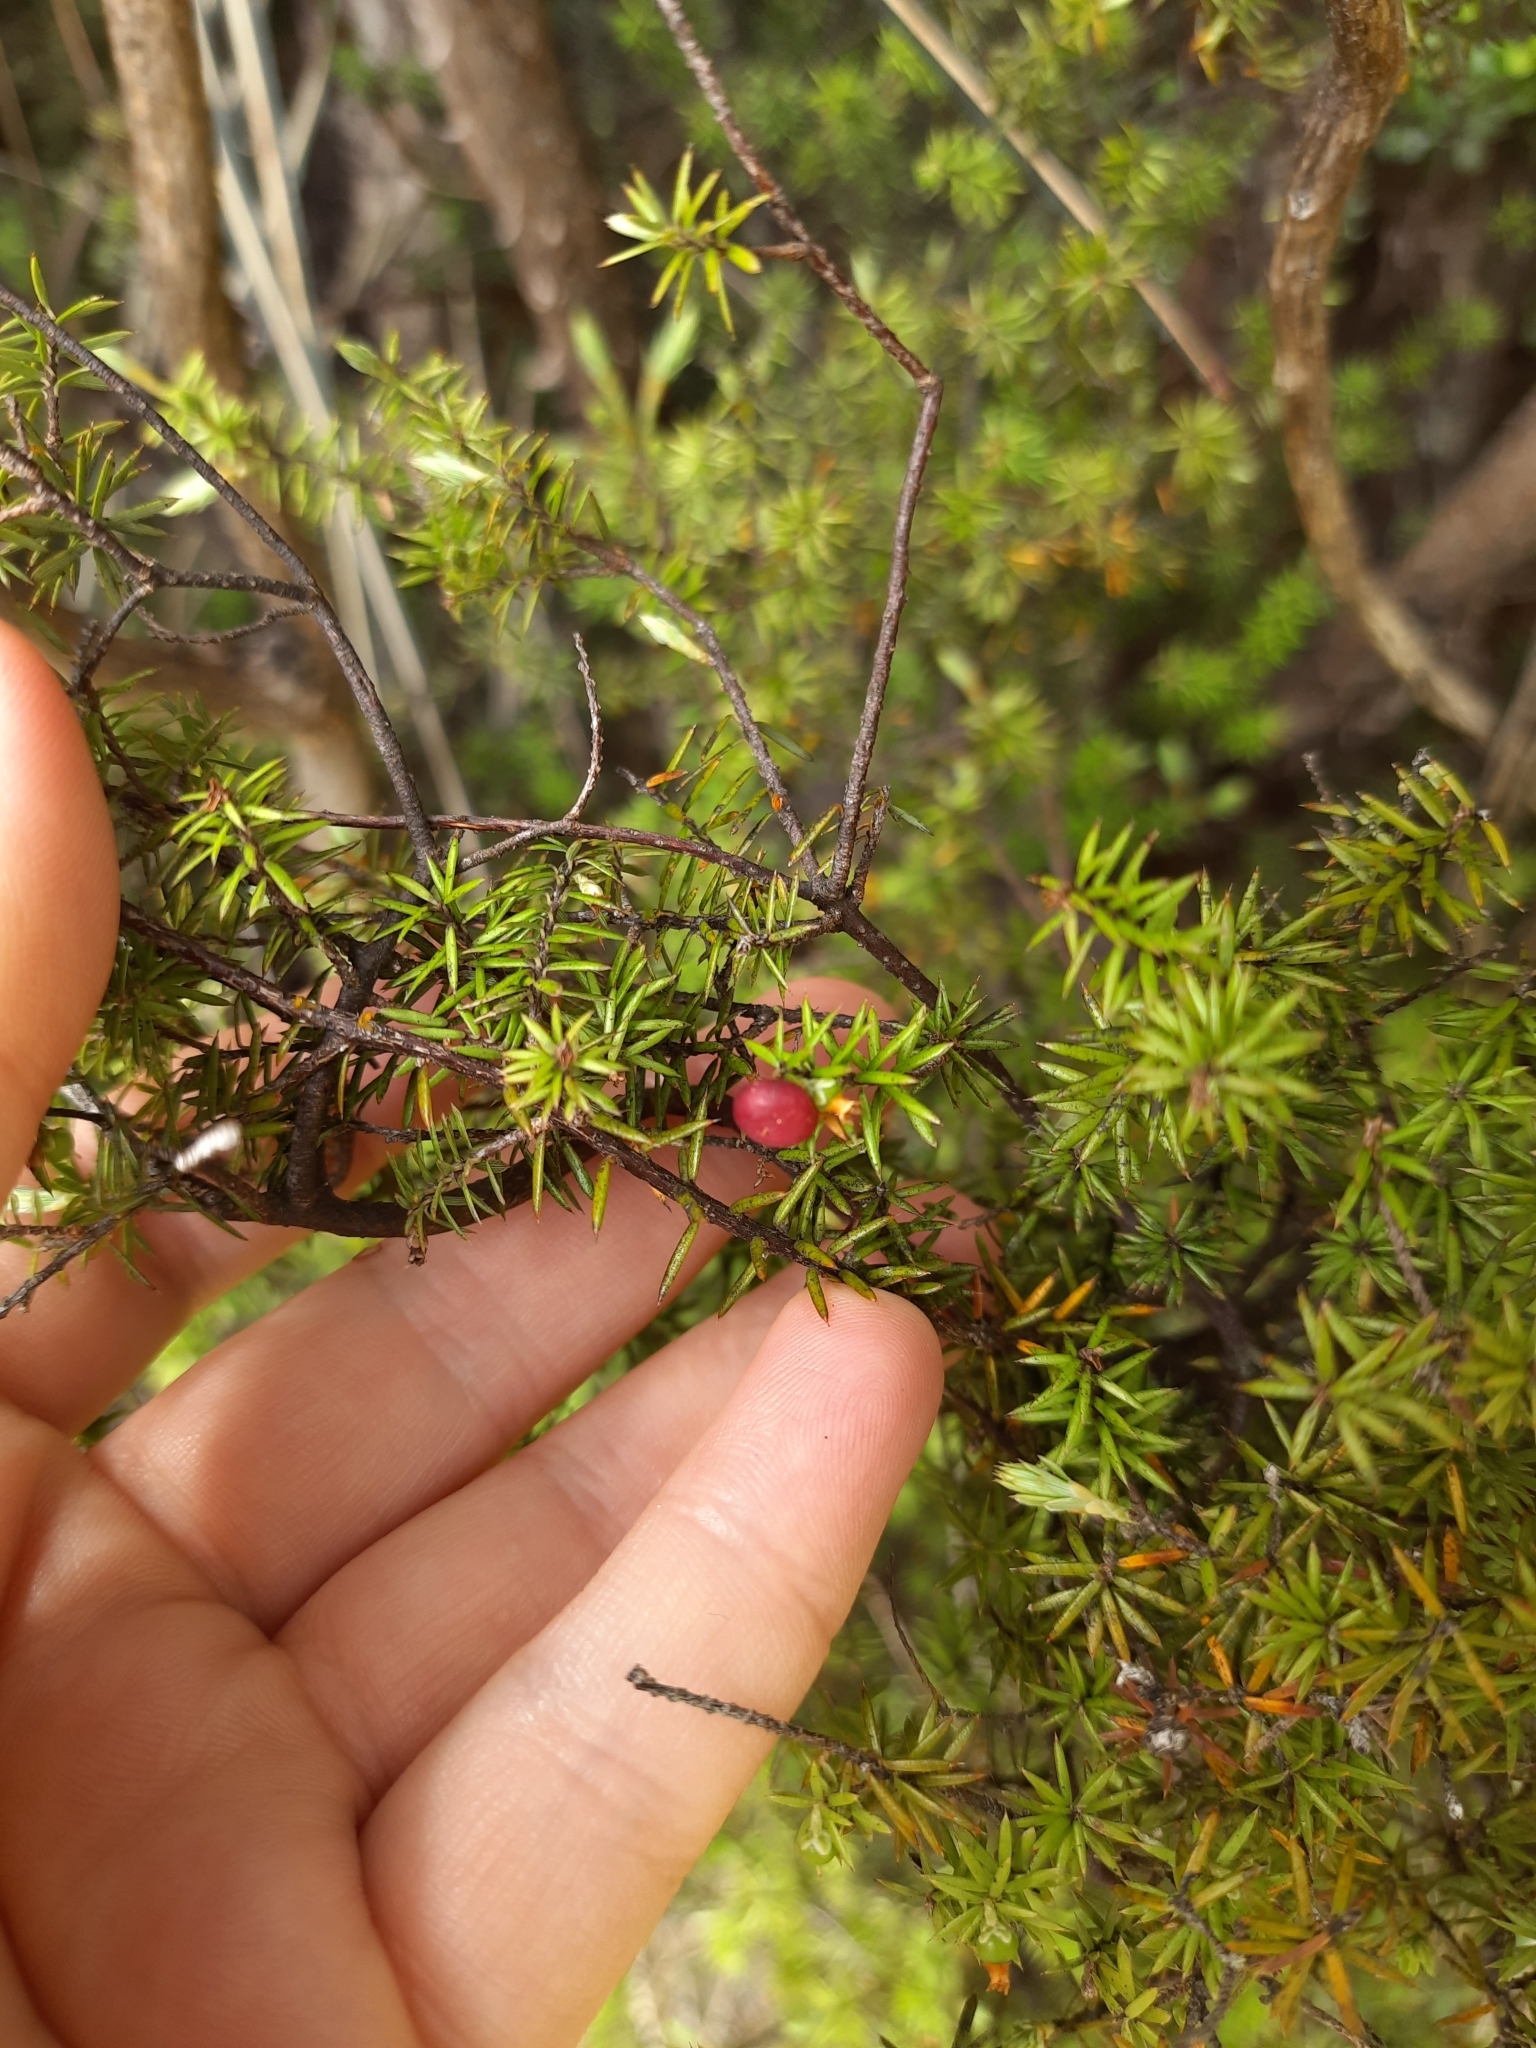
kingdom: Plantae
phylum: Tracheophyta
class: Magnoliopsida
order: Ericales
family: Ericaceae
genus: Leptecophylla
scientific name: Leptecophylla juniperina
